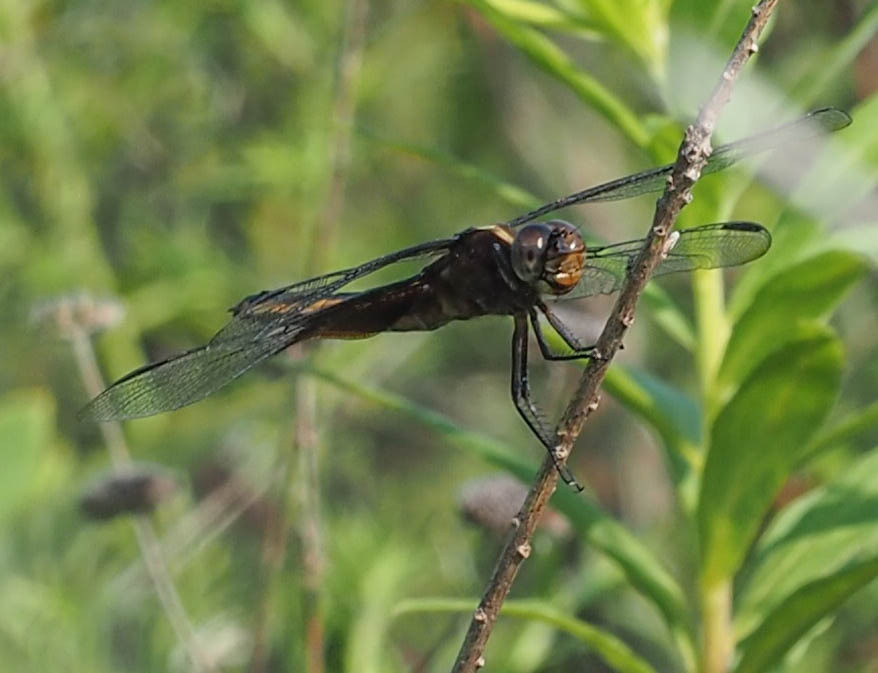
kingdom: Animalia
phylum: Arthropoda
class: Insecta
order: Odonata
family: Libellulidae
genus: Libellula
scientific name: Libellula luctuosa
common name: Widow skimmer
